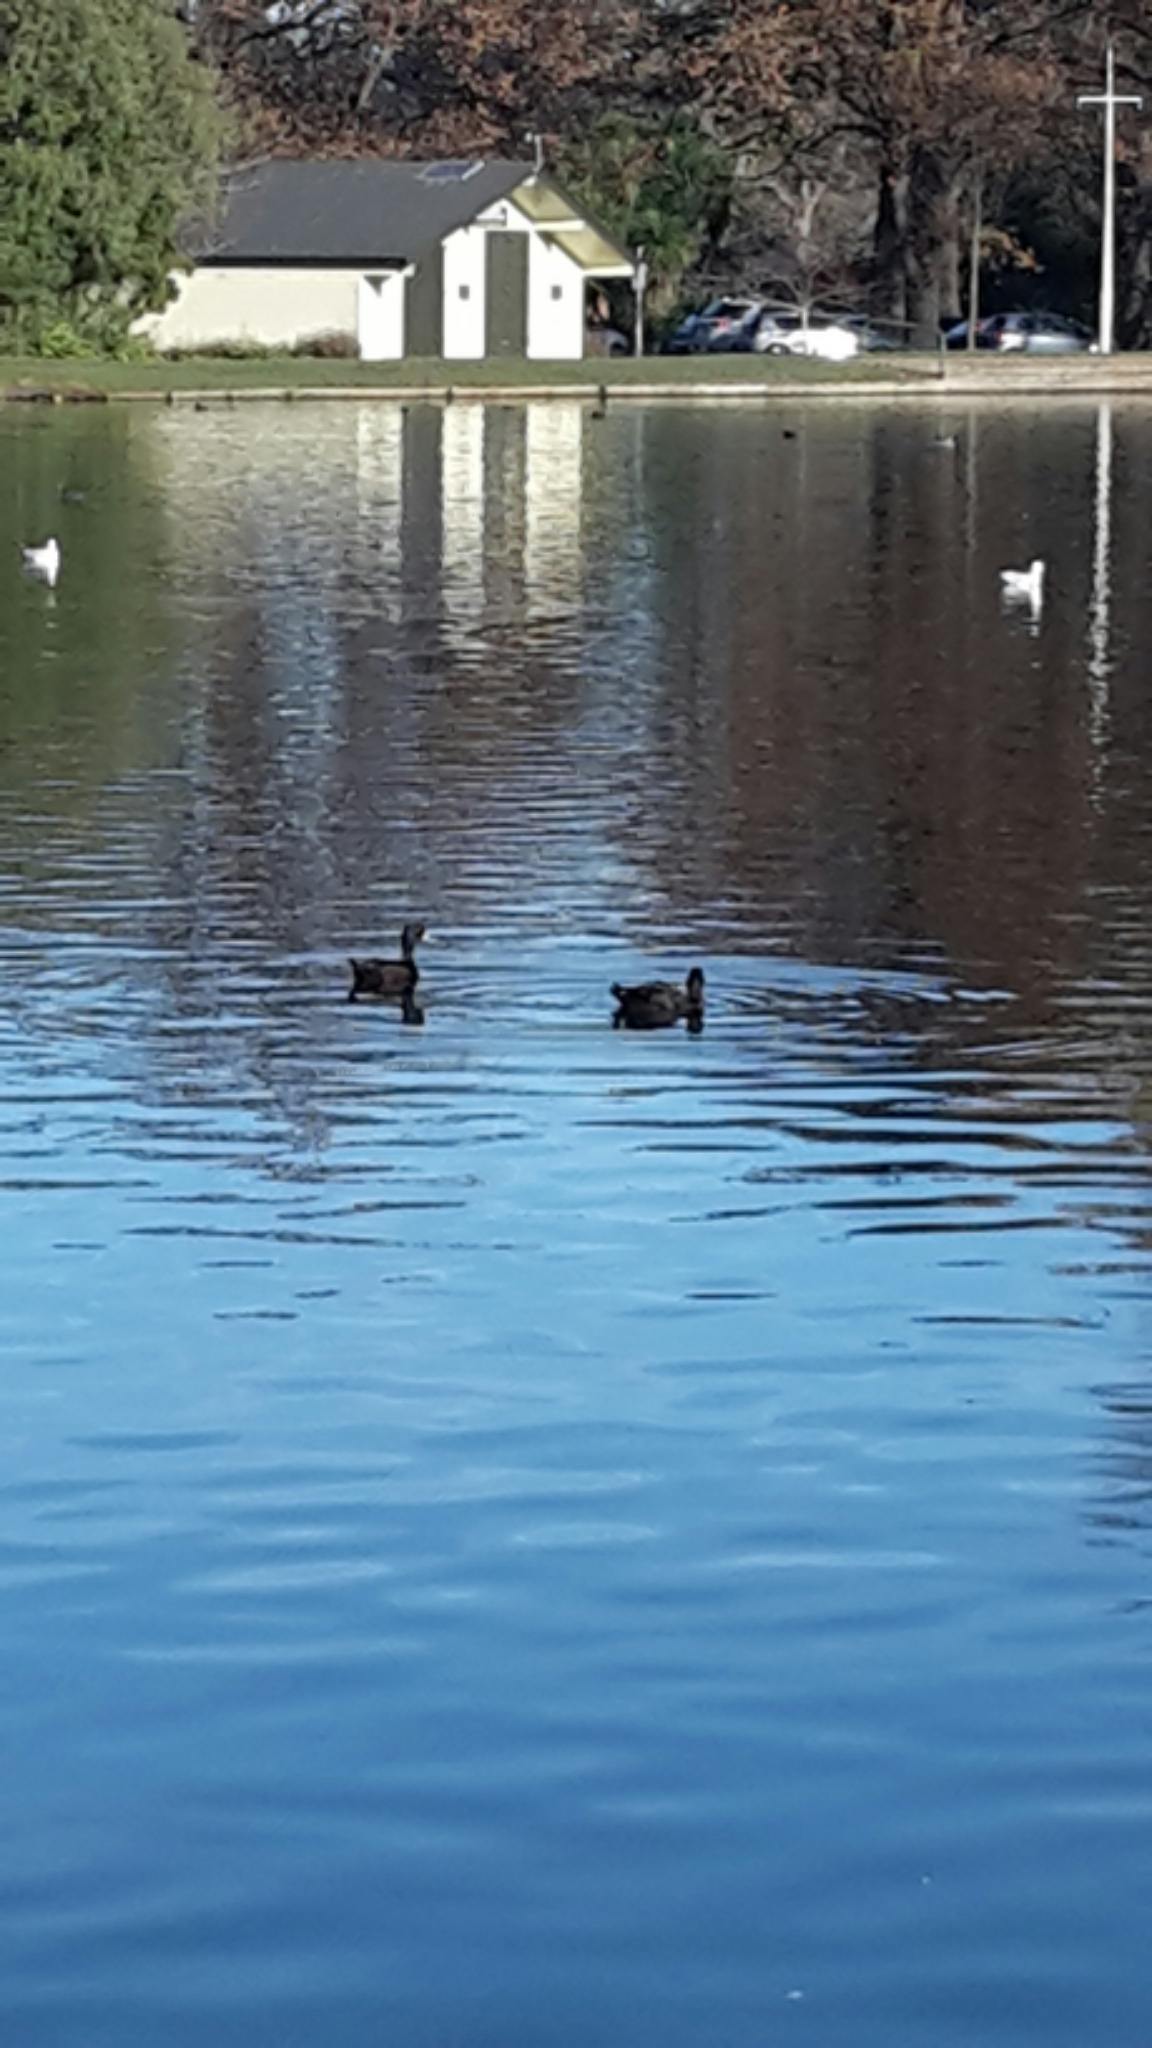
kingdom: Animalia
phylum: Chordata
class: Aves
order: Anseriformes
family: Anatidae
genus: Aythya
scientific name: Aythya novaeseelandiae
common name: New zealand scaup
